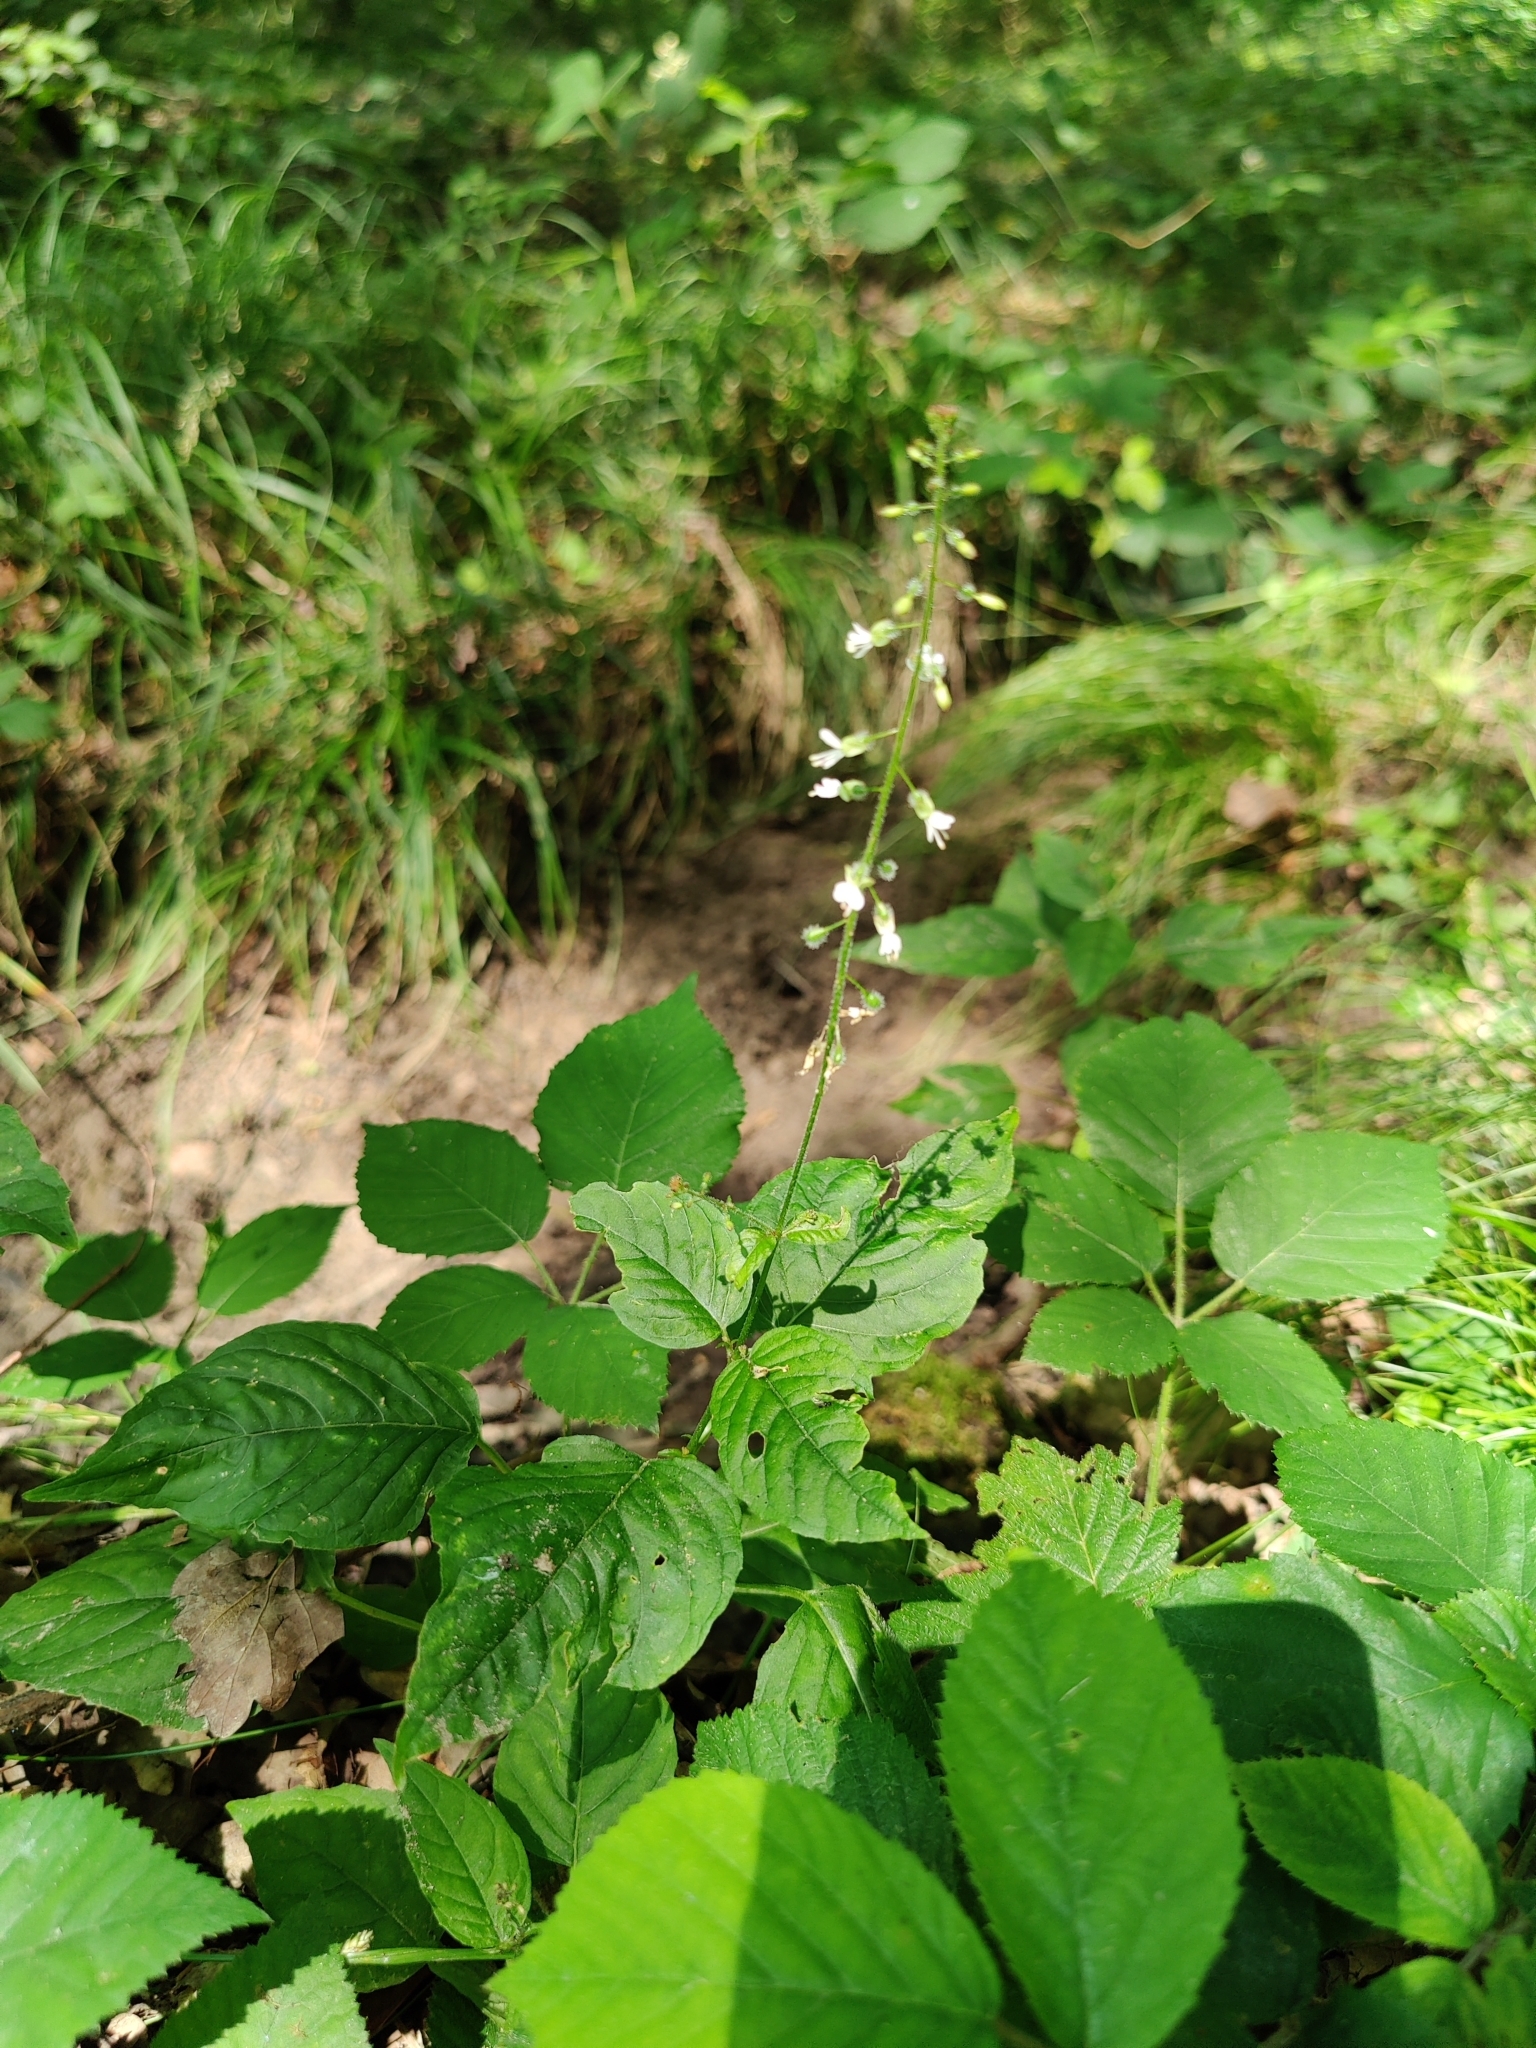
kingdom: Plantae
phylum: Tracheophyta
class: Magnoliopsida
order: Myrtales
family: Onagraceae
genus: Circaea
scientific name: Circaea lutetiana
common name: Enchanter's-nightshade
